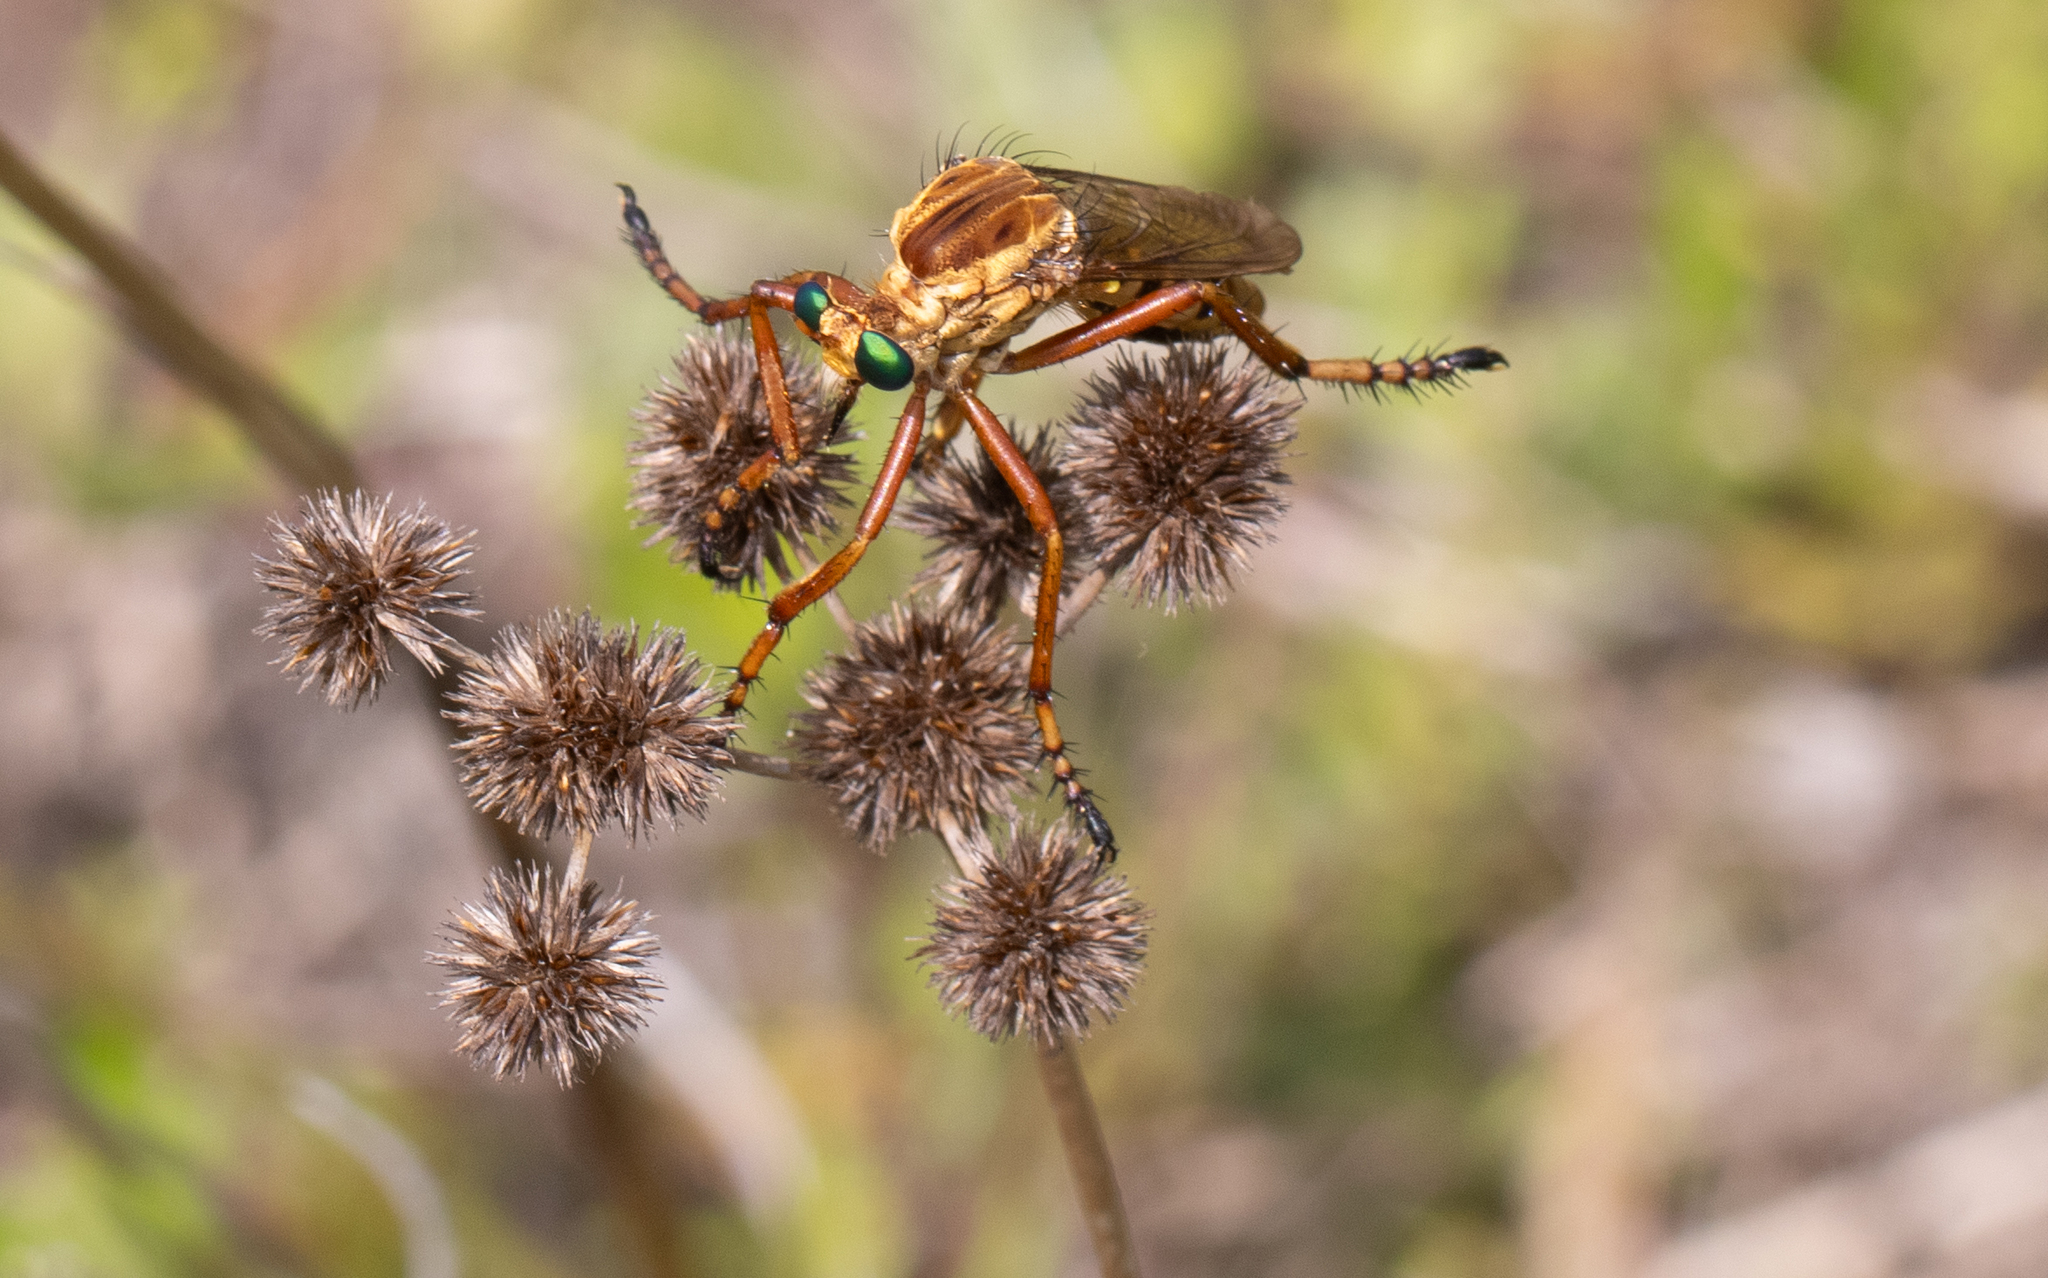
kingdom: Animalia
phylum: Arthropoda
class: Insecta
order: Diptera
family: Asilidae
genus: Diogmites
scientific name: Diogmites crudelis
